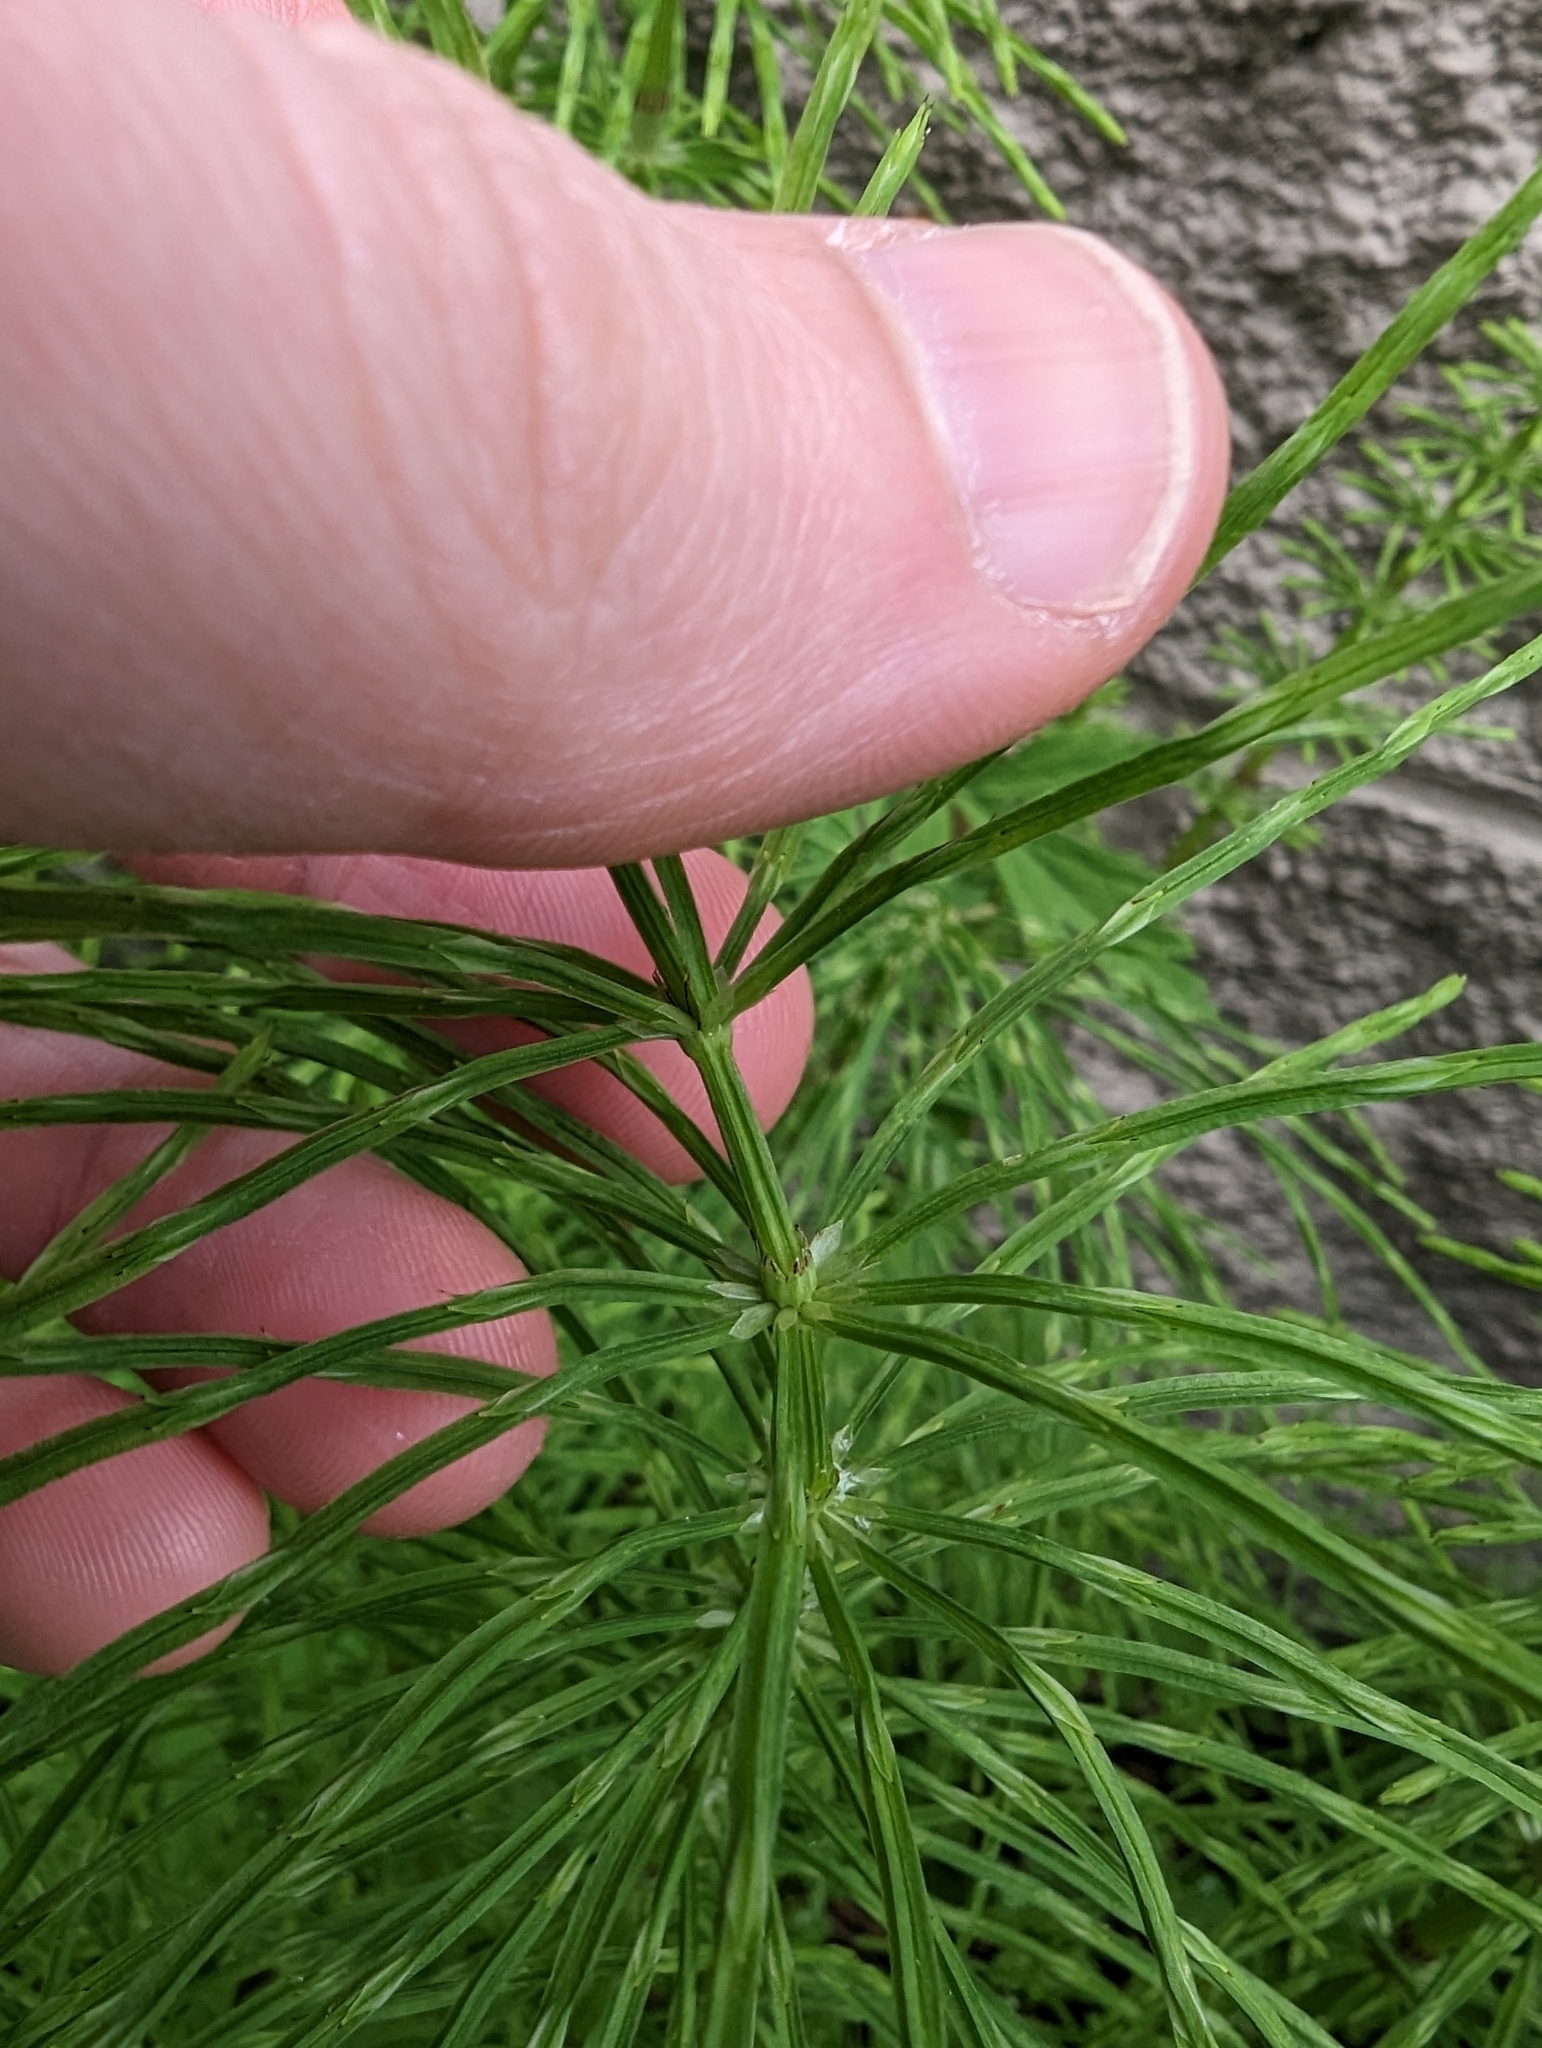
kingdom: Plantae
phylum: Tracheophyta
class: Polypodiopsida
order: Equisetales
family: Equisetaceae
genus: Equisetum
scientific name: Equisetum arvense
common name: Field horsetail
